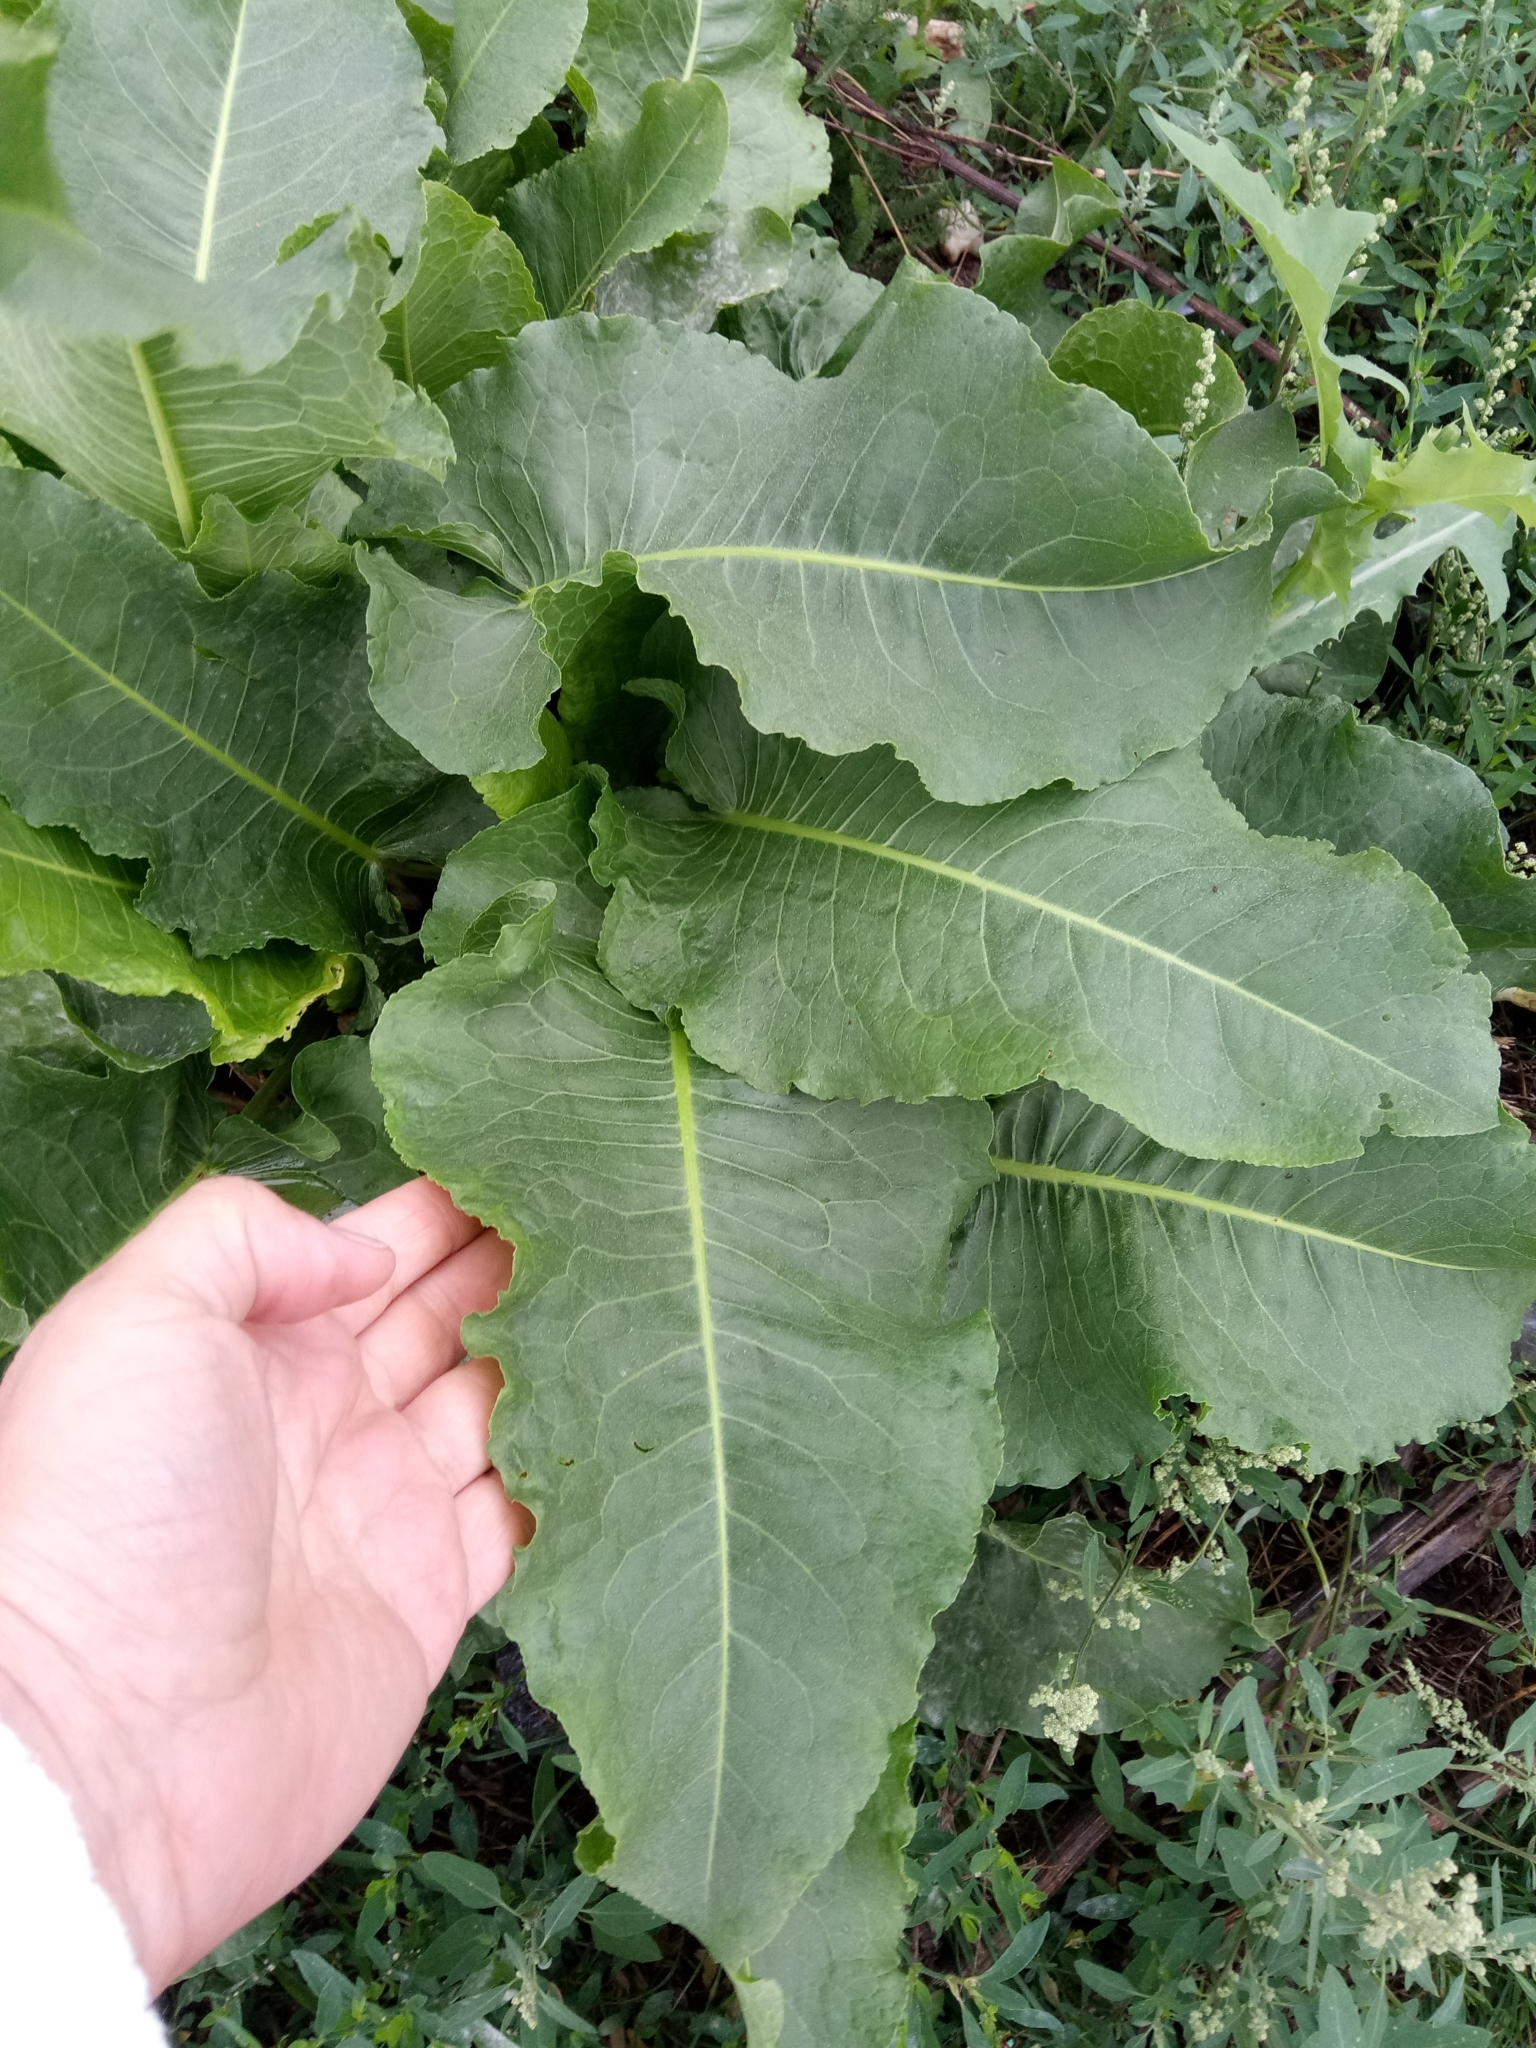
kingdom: Plantae
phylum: Tracheophyta
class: Magnoliopsida
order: Caryophyllales
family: Polygonaceae
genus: Rumex
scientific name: Rumex obtusifolius
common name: Bitter dock
